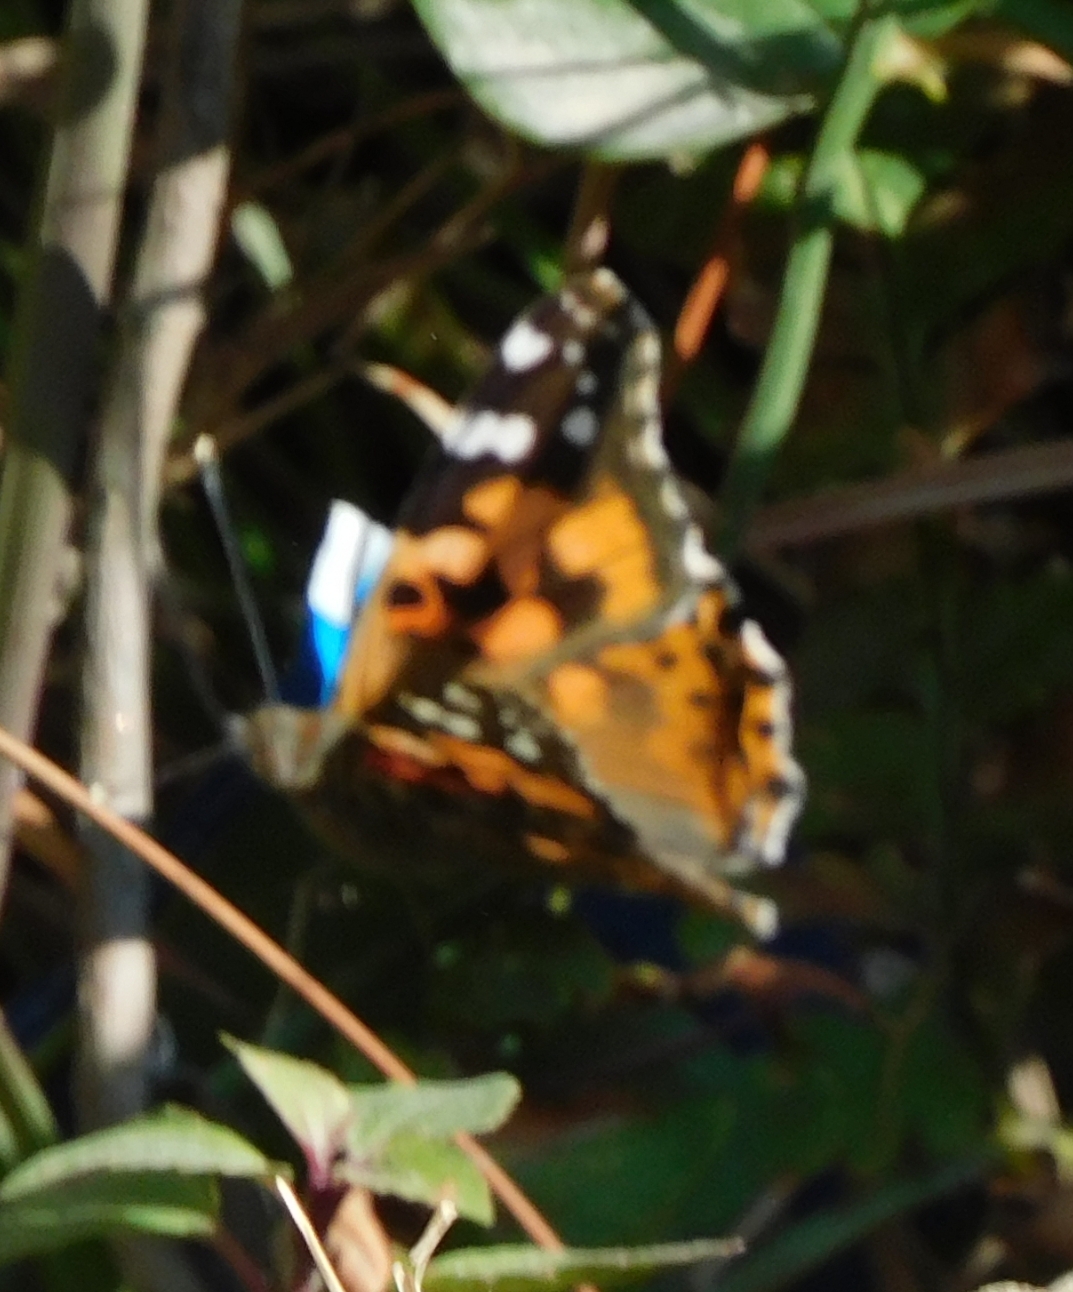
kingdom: Animalia
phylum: Arthropoda
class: Insecta
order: Lepidoptera
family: Nymphalidae
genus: Vanessa
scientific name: Vanessa cardui
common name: Painted lady
